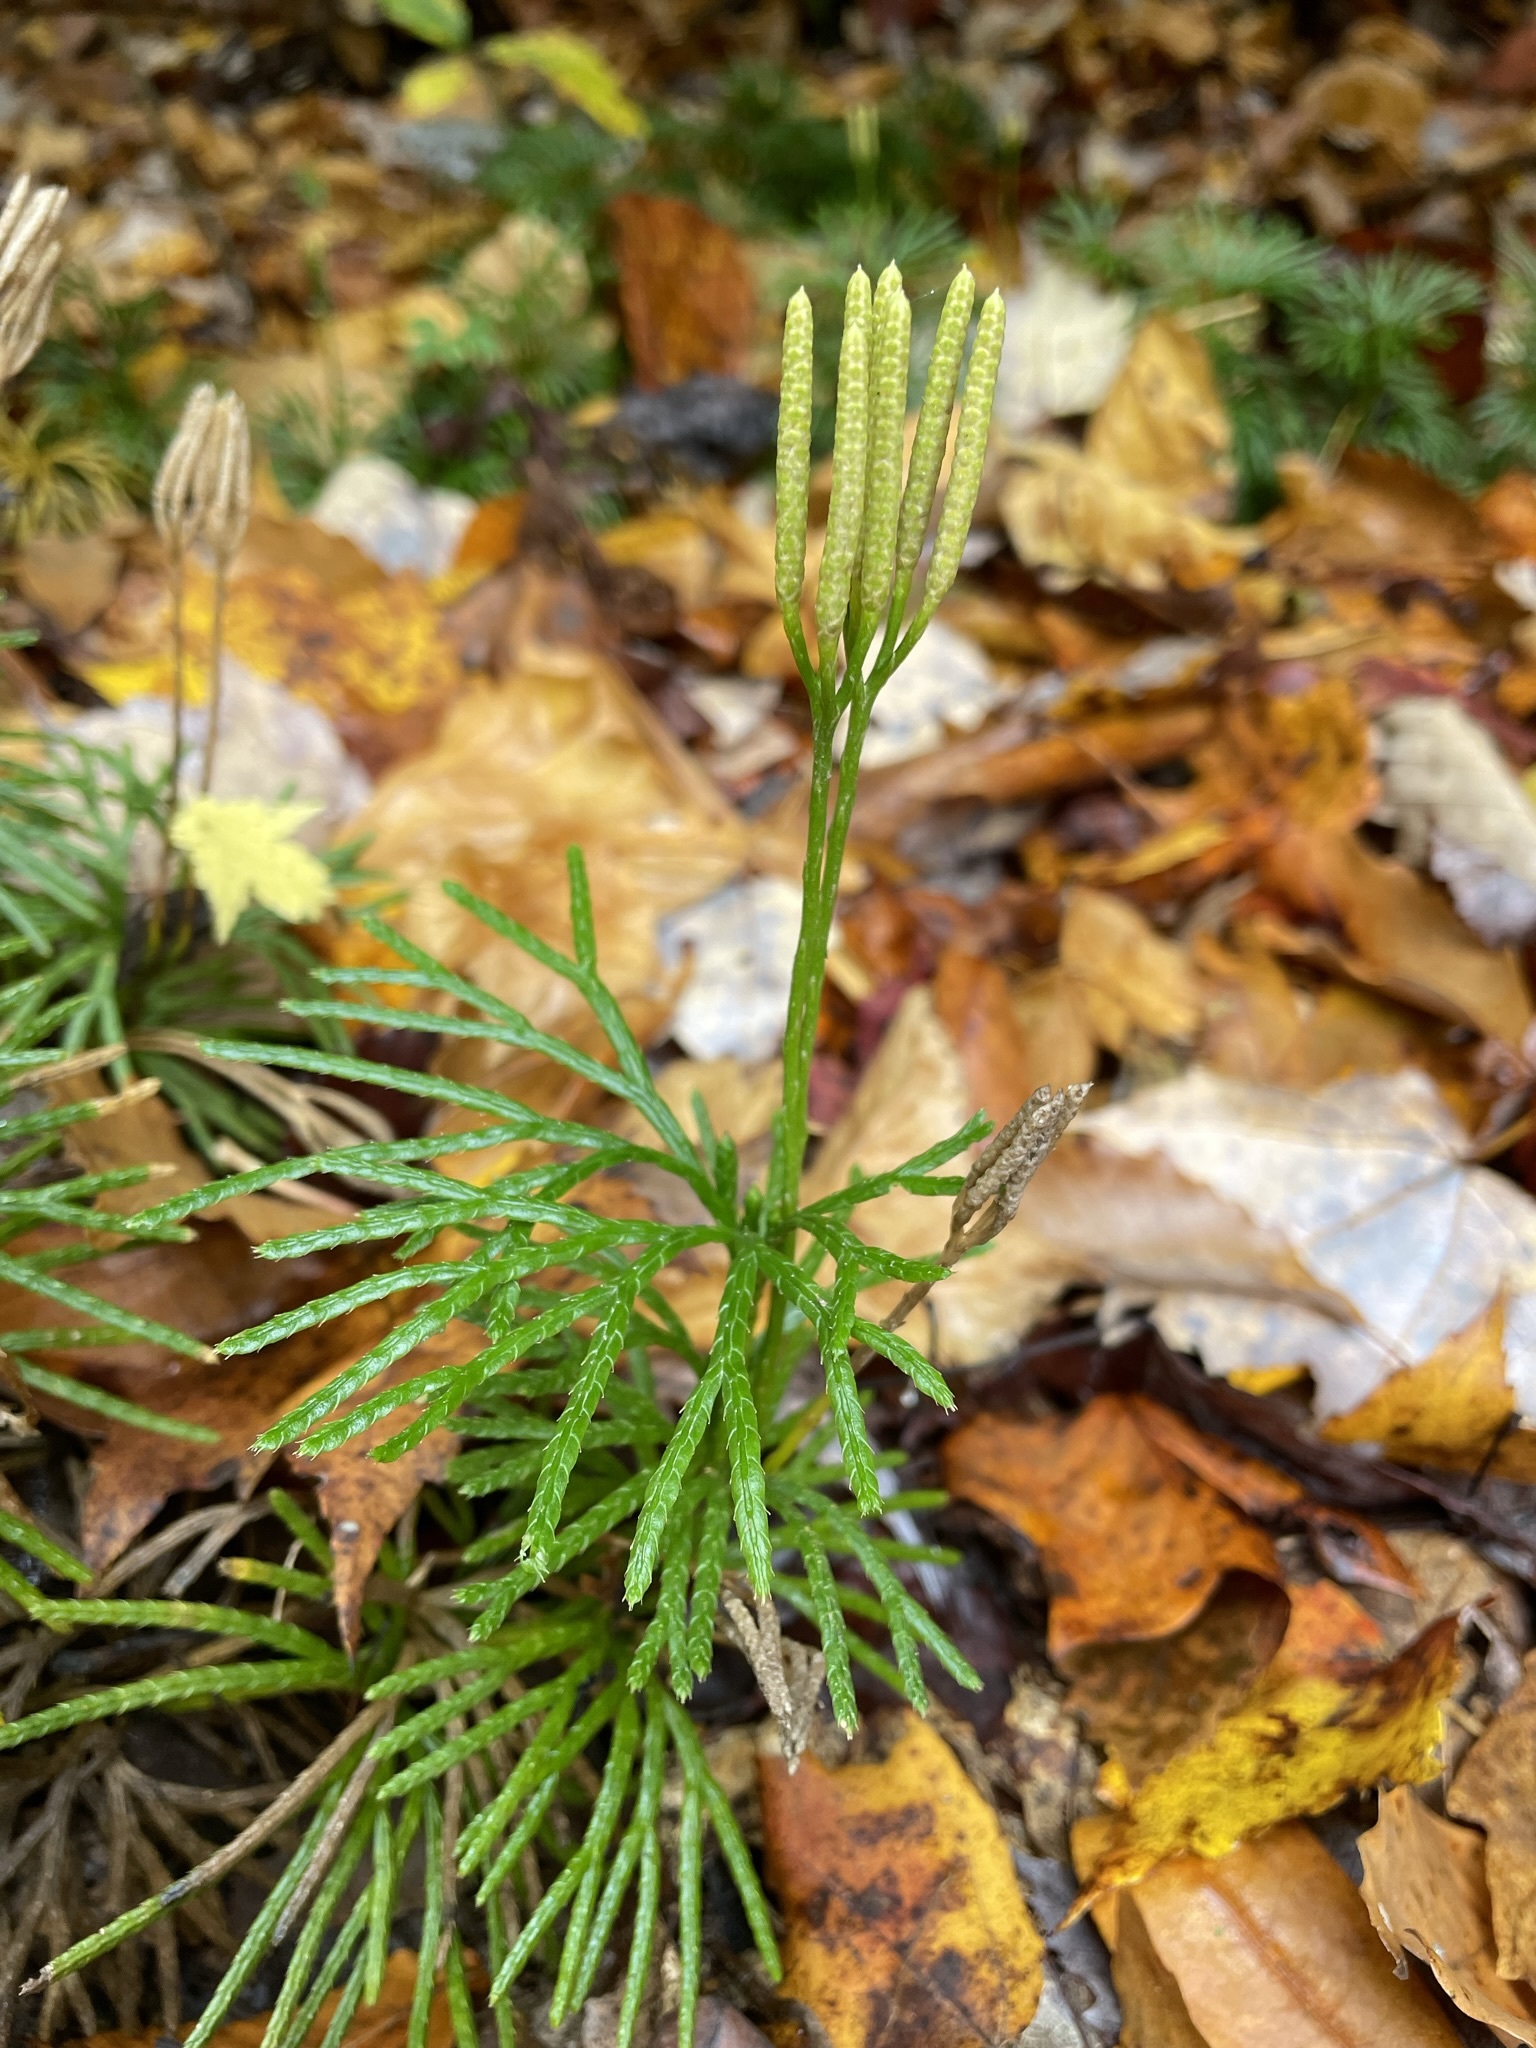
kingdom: Plantae
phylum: Tracheophyta
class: Lycopodiopsida
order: Lycopodiales
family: Lycopodiaceae
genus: Diphasiastrum
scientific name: Diphasiastrum digitatum
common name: Southern running-pine
